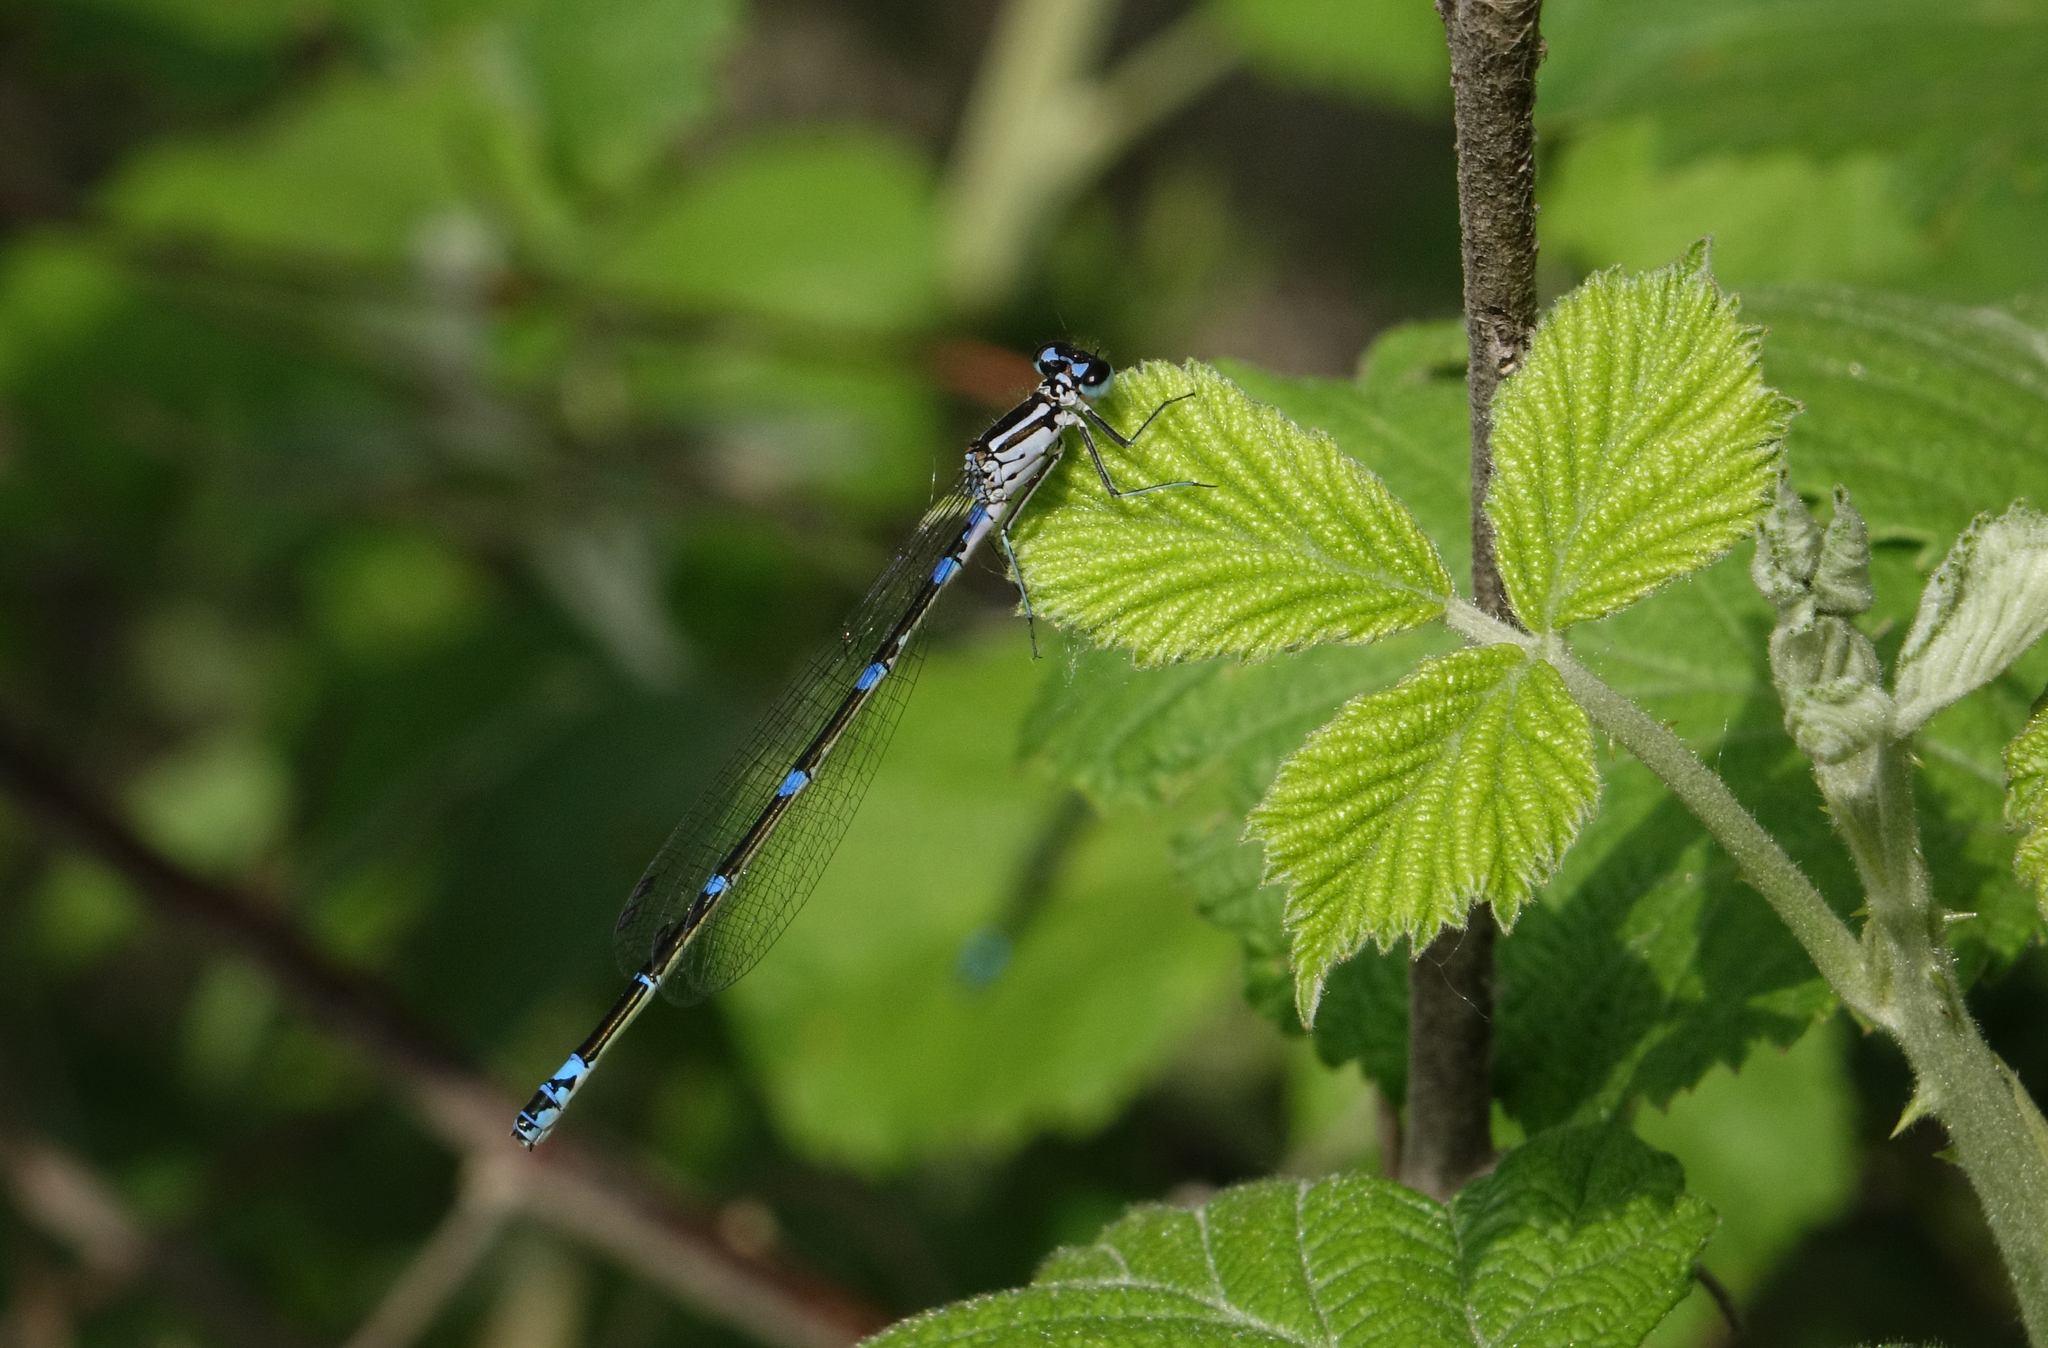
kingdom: Animalia
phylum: Arthropoda
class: Insecta
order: Odonata
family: Coenagrionidae
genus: Coenagrion
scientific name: Coenagrion pulchellum
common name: Variable bluet
